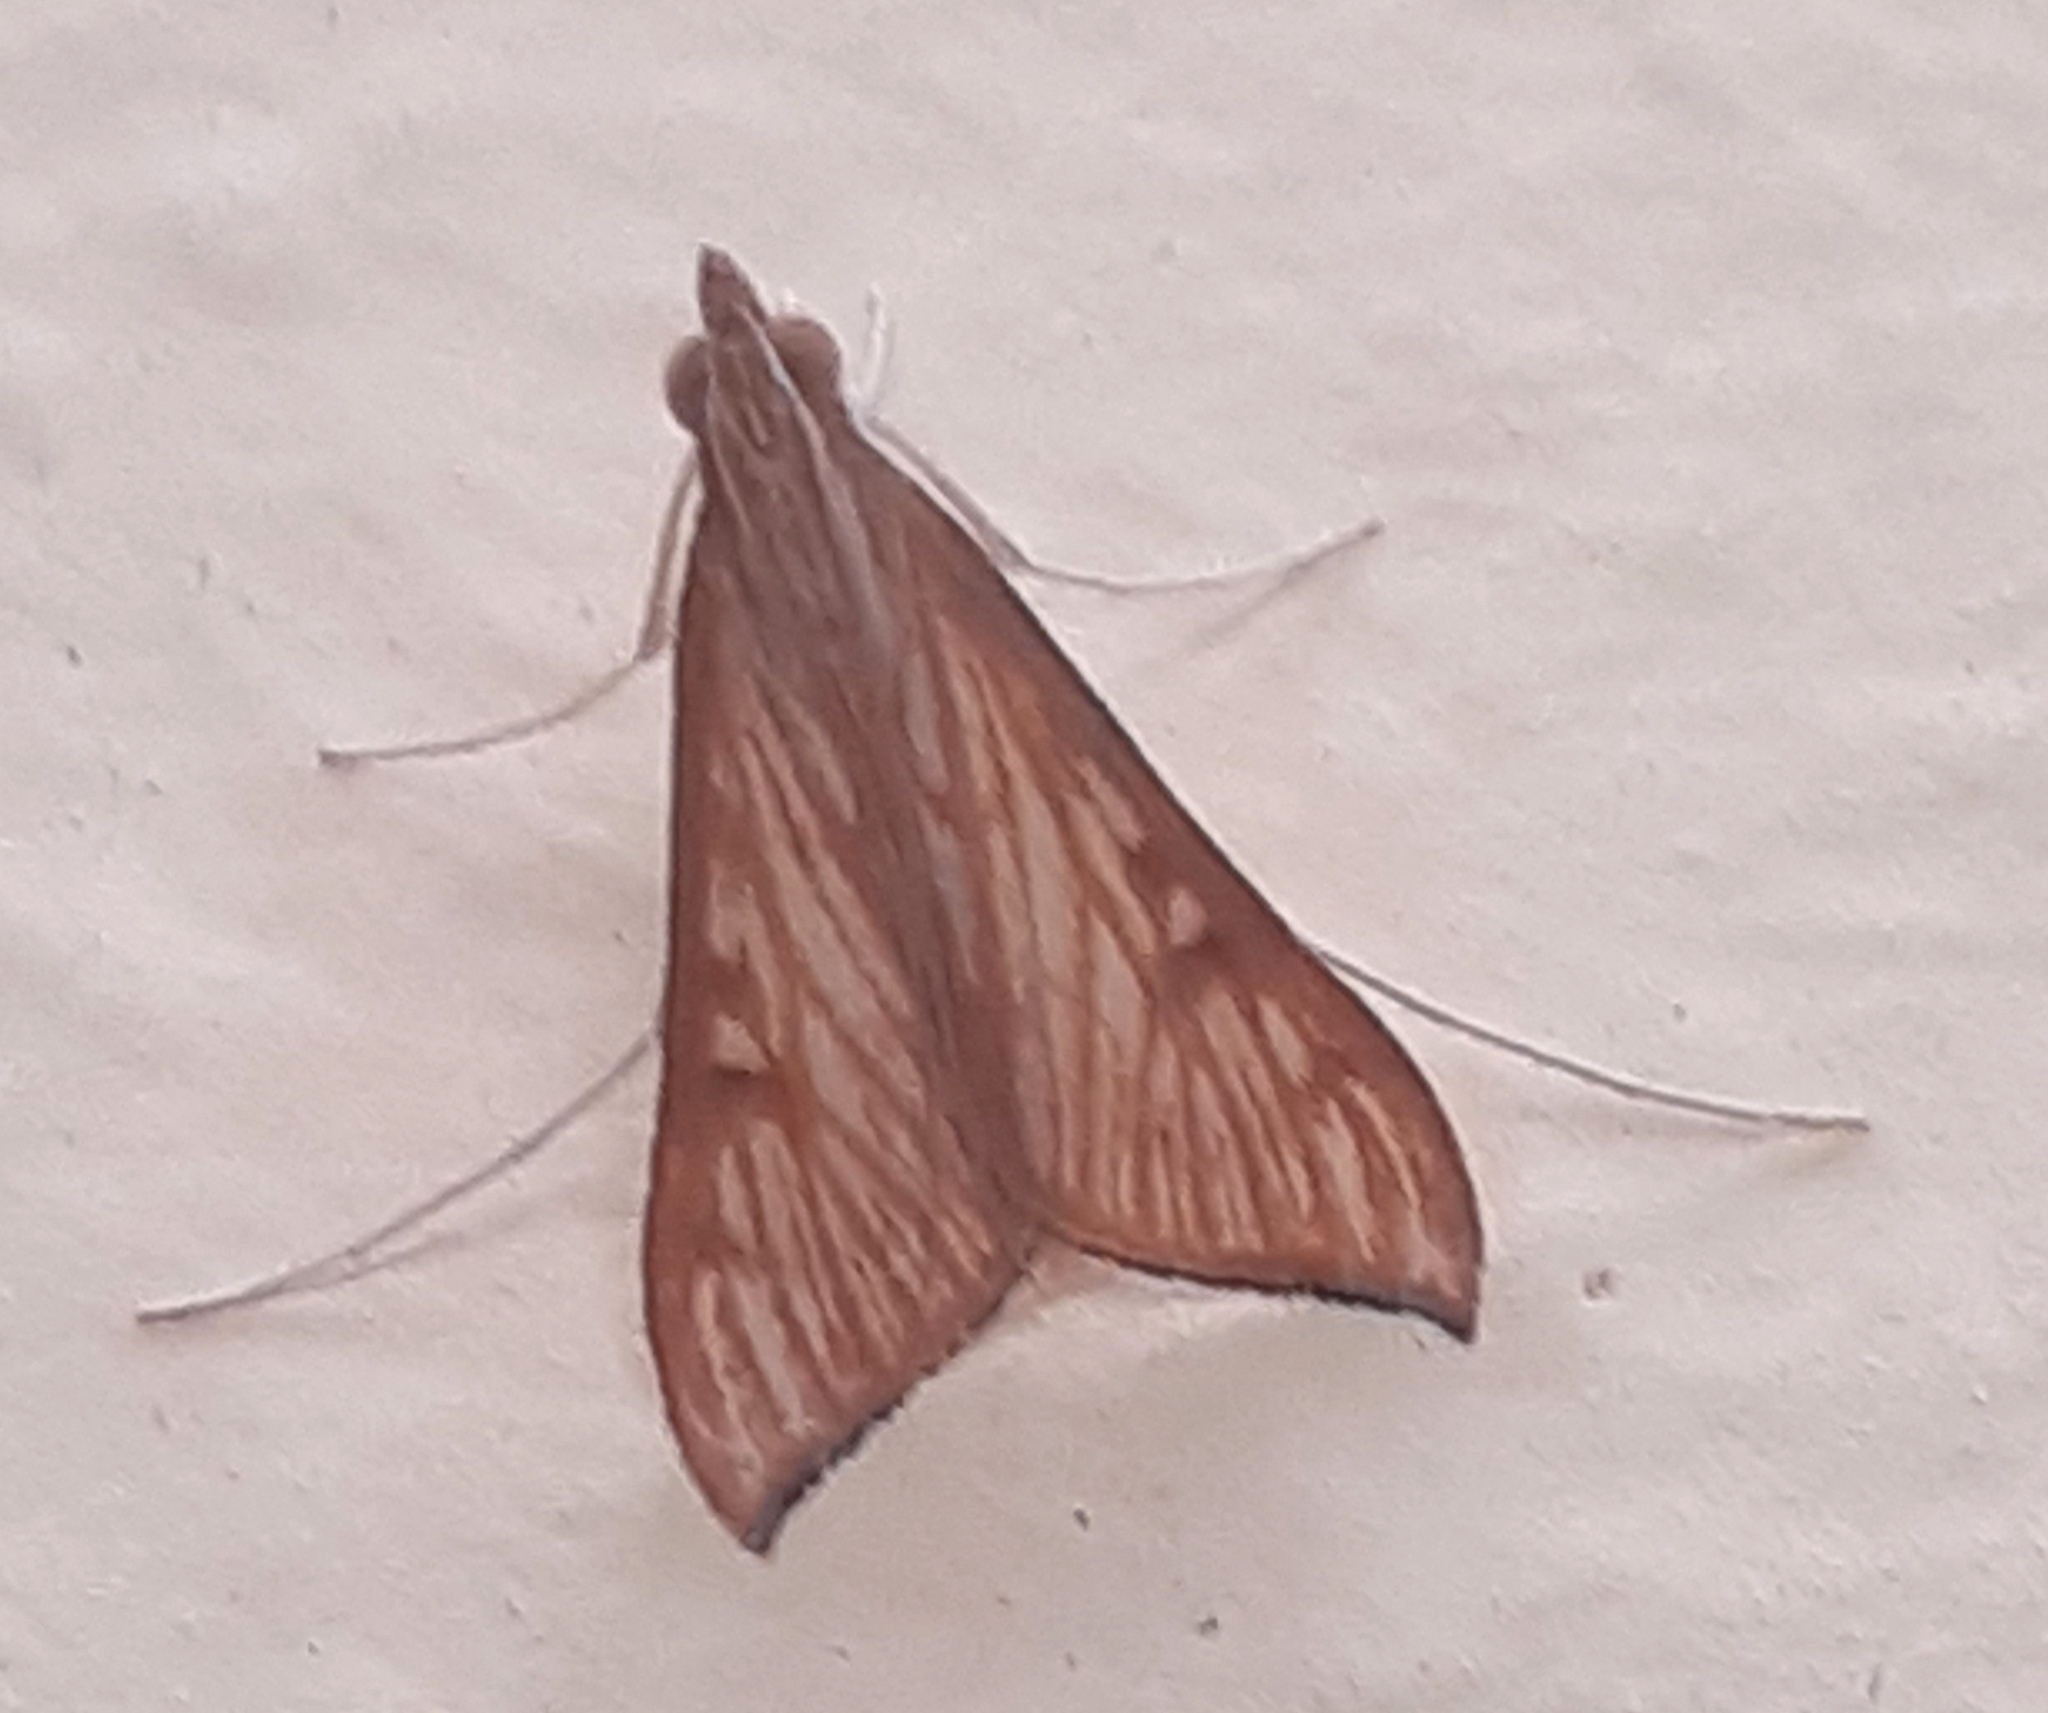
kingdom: Animalia
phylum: Arthropoda
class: Insecta
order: Lepidoptera
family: Crambidae
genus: Antigastra
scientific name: Antigastra catalaunalis
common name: Spanish dot
